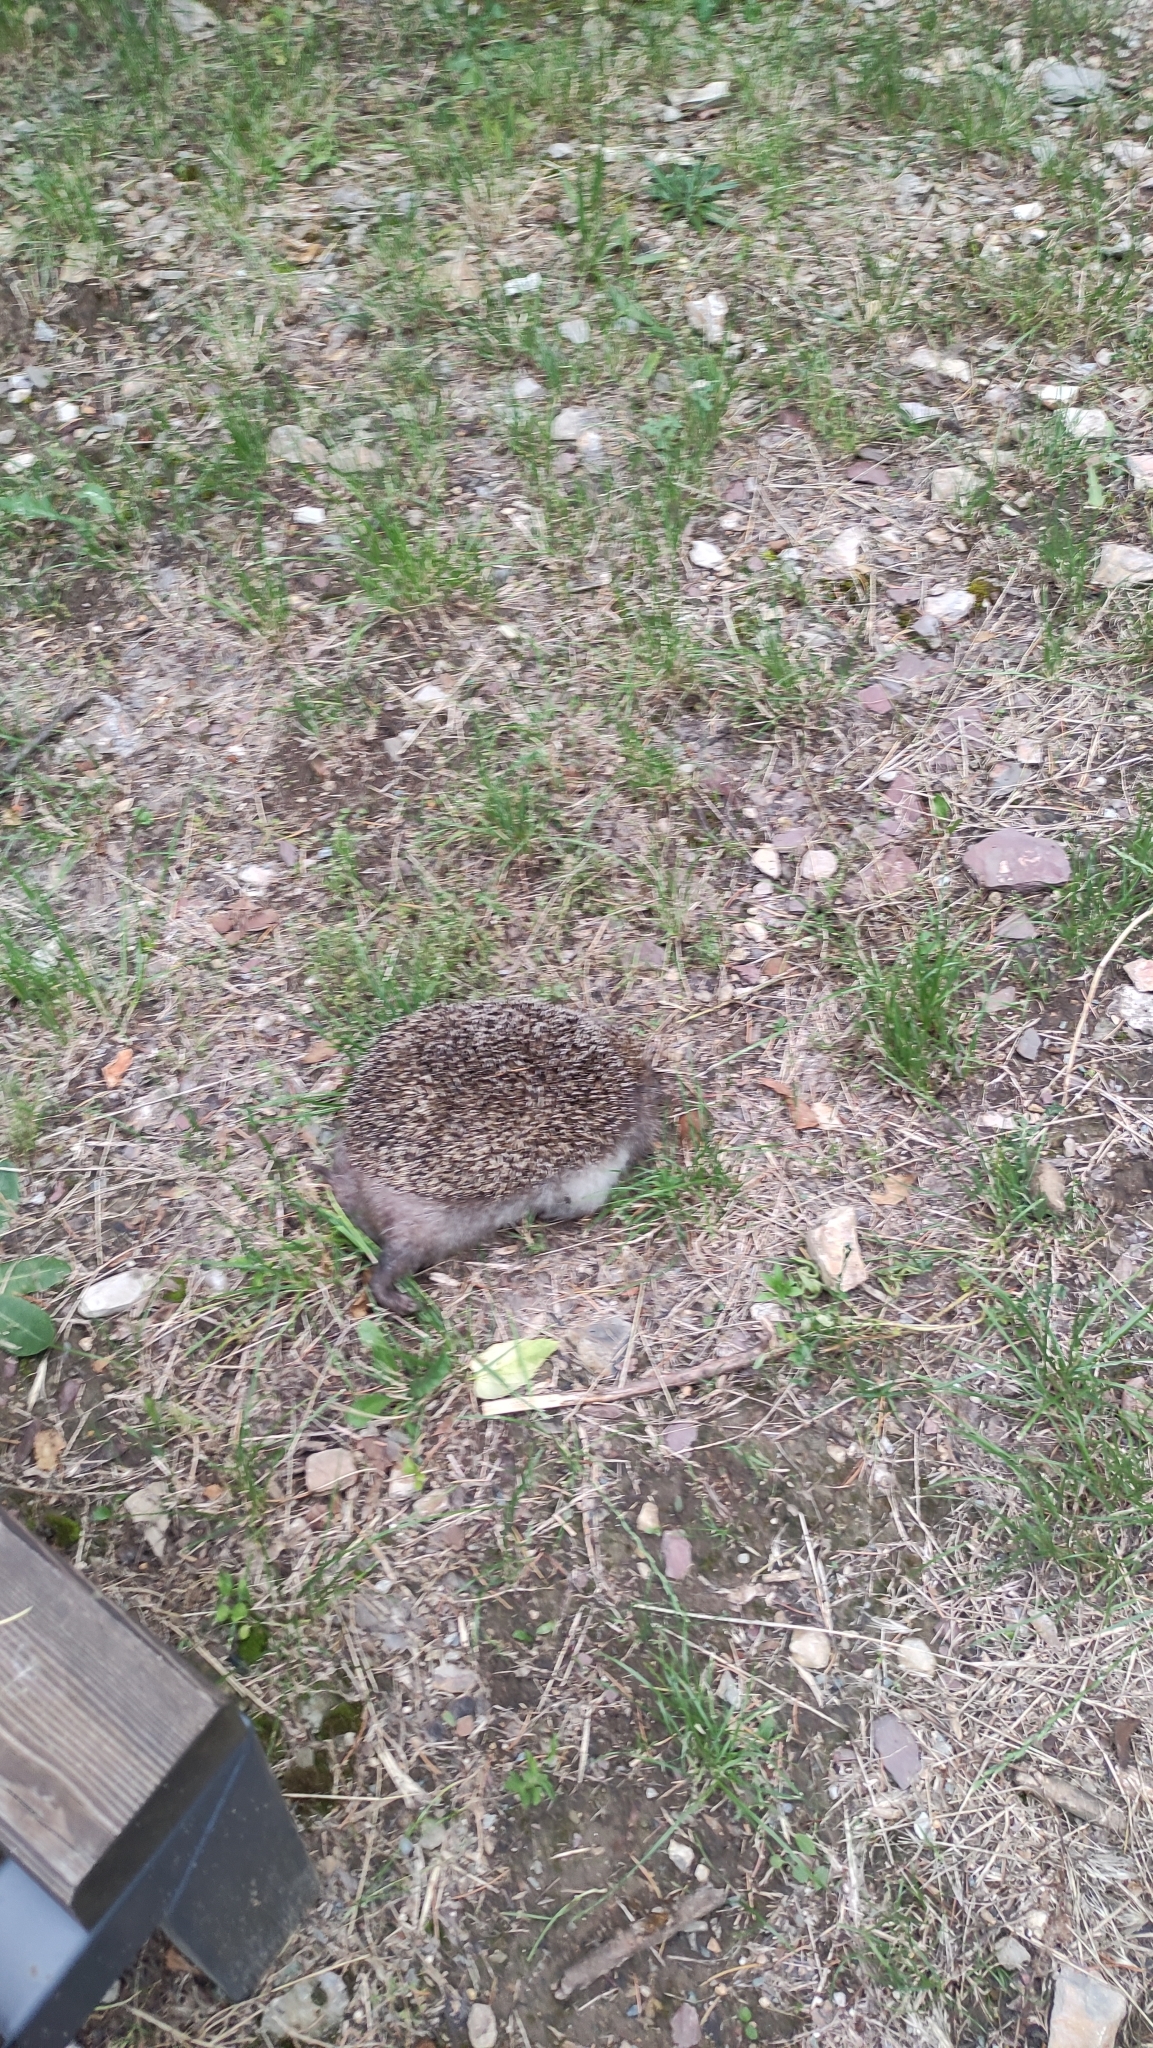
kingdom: Animalia
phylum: Chordata
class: Mammalia
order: Erinaceomorpha
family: Erinaceidae
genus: Erinaceus
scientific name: Erinaceus roumanicus
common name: Northern white-breasted hedgehog
